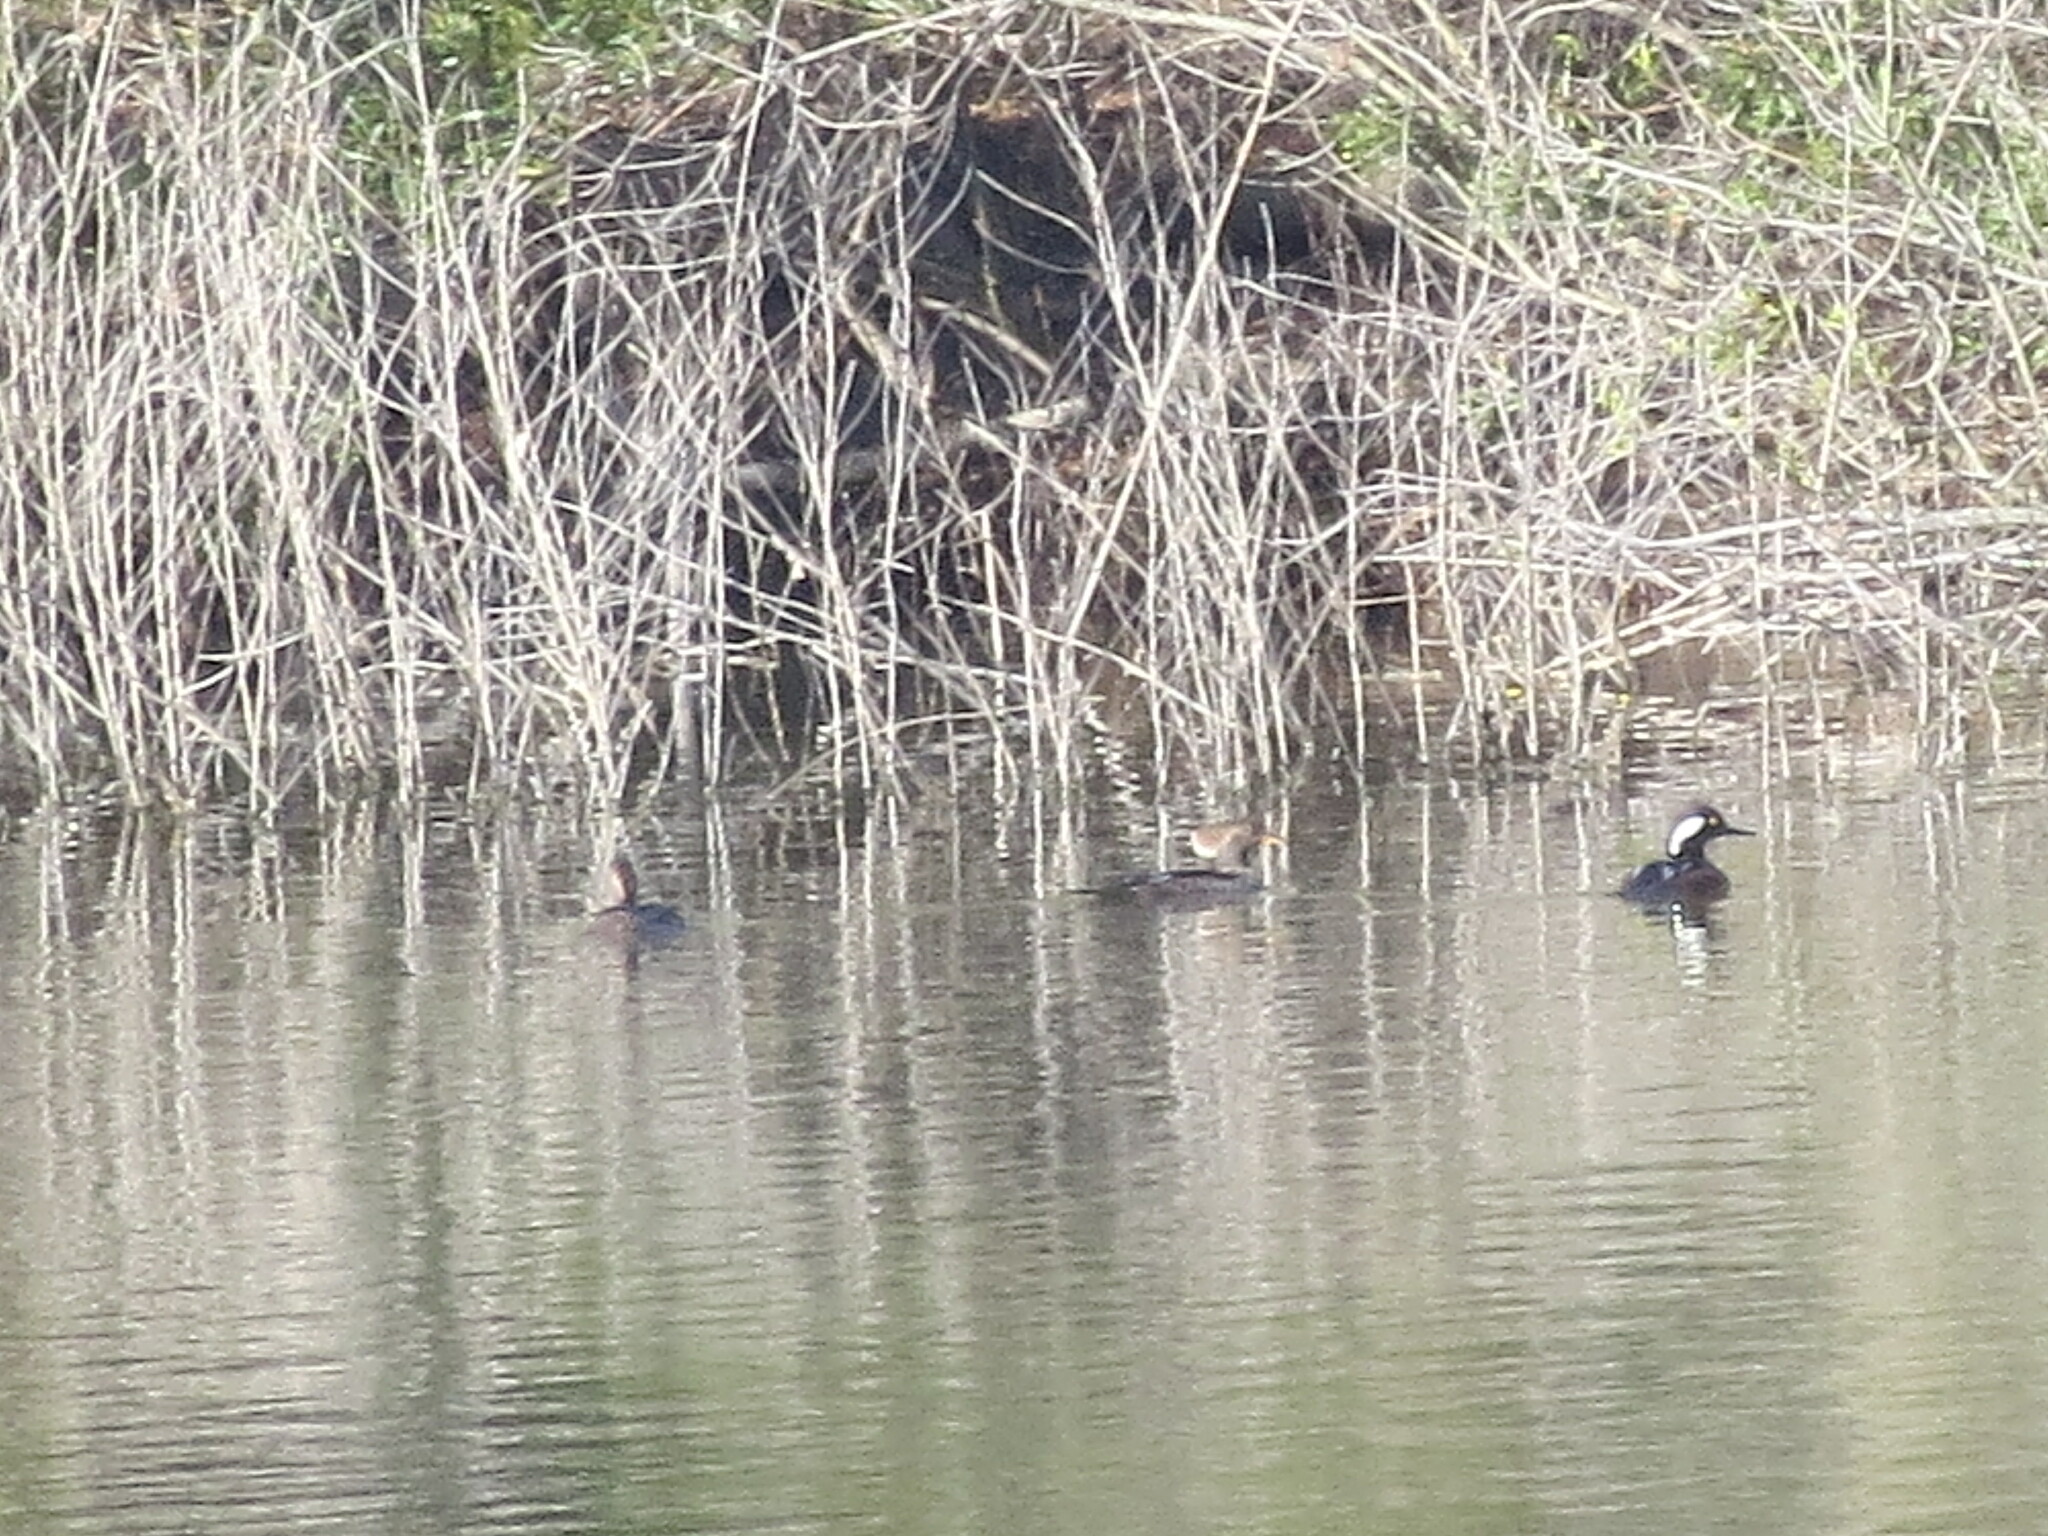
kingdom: Animalia
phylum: Chordata
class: Aves
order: Anseriformes
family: Anatidae
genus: Lophodytes
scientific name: Lophodytes cucullatus
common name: Hooded merganser
